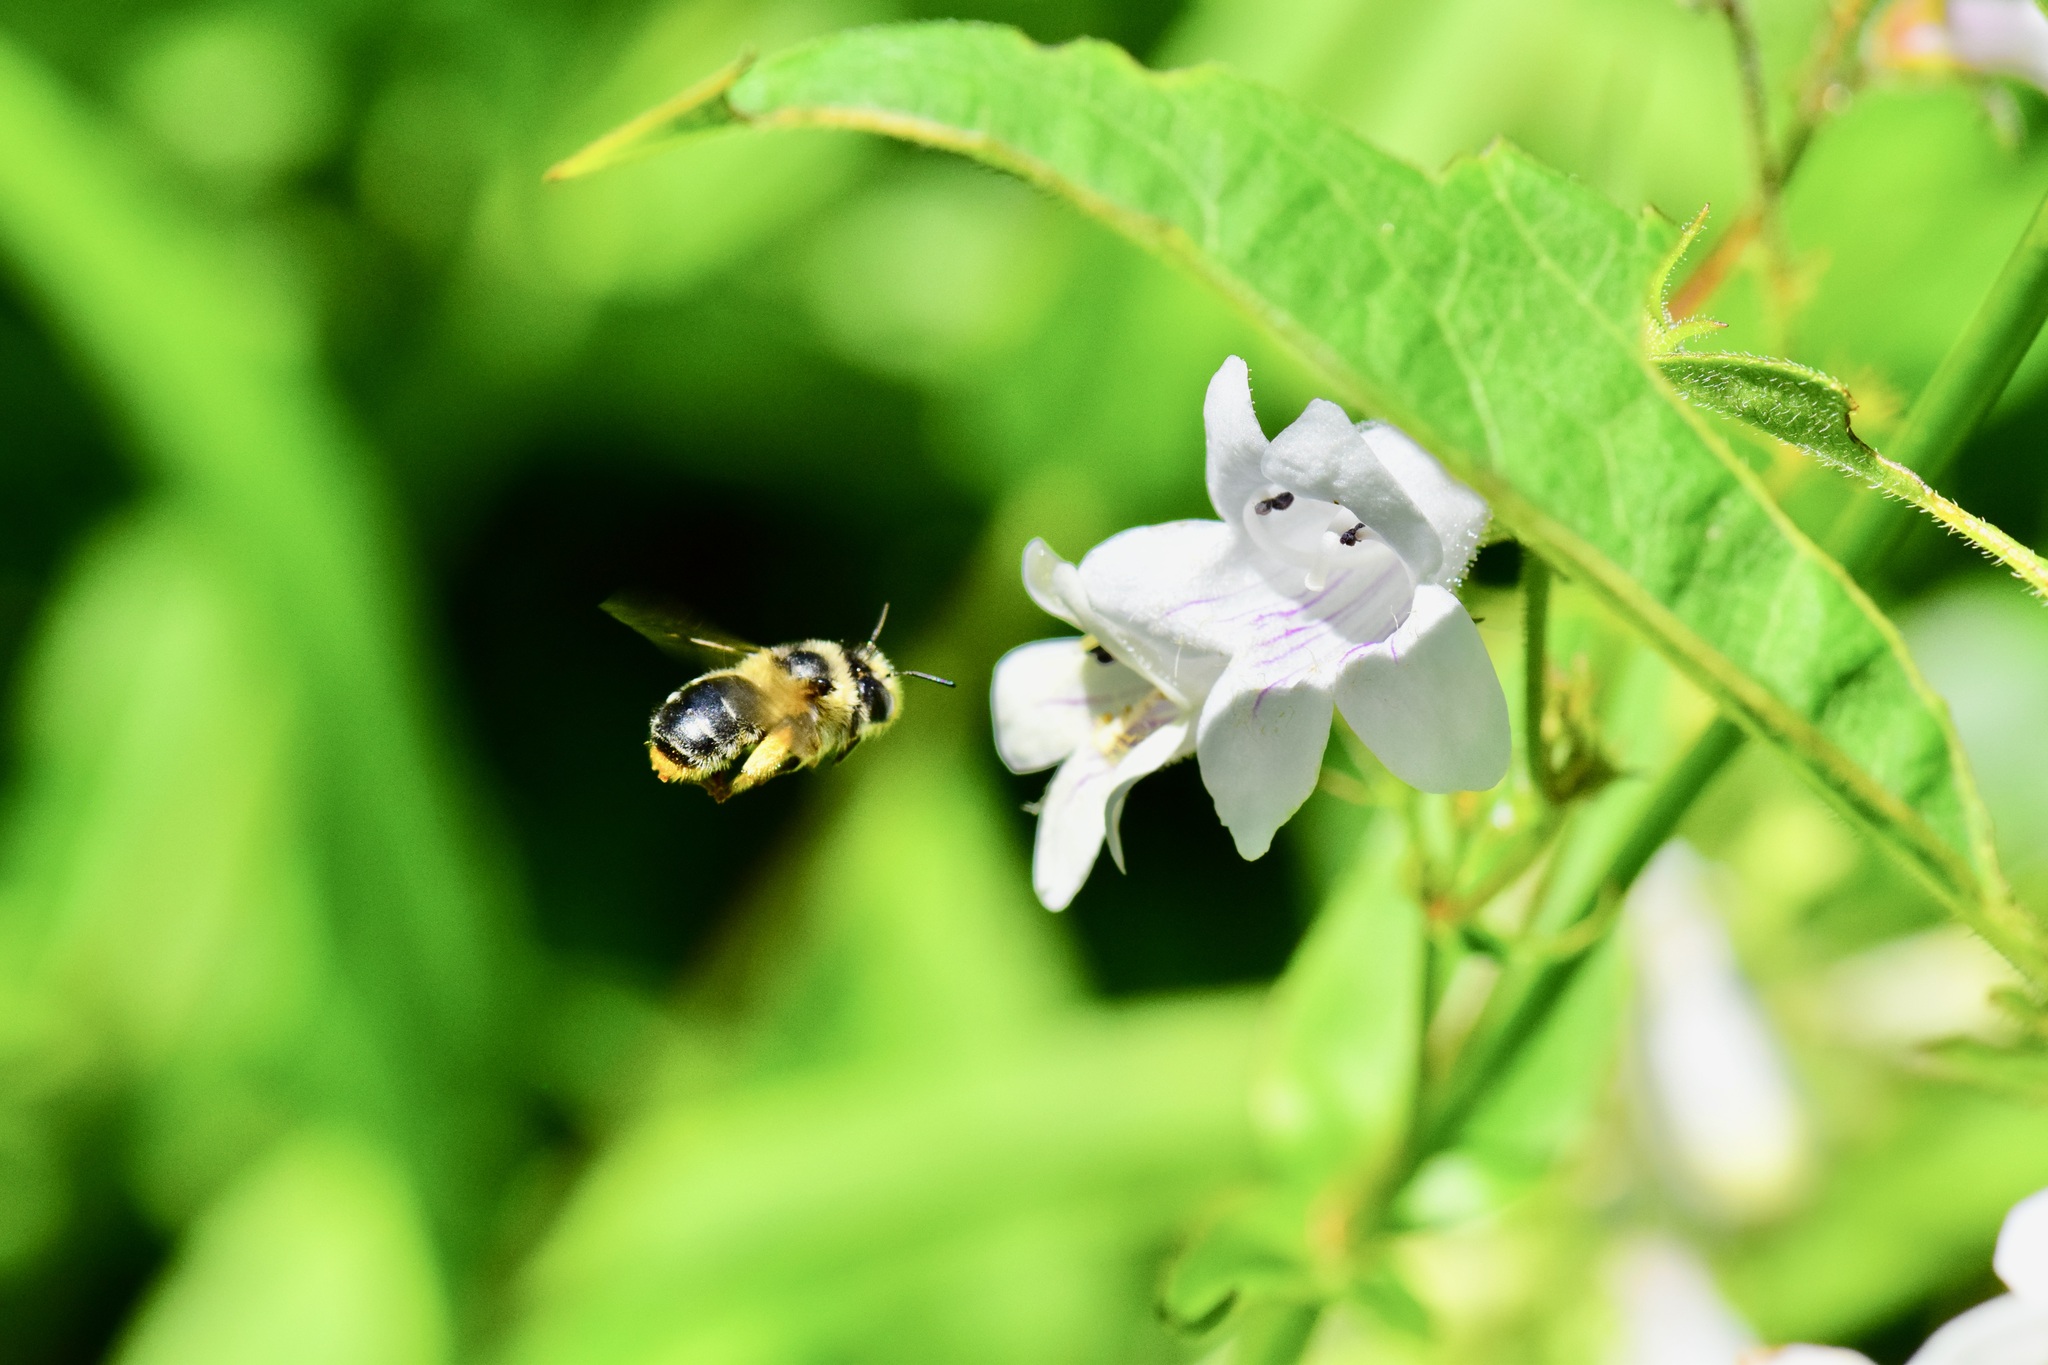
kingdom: Animalia
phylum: Arthropoda
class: Insecta
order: Hymenoptera
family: Apidae
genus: Anthophora
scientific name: Anthophora terminalis
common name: Orange-tipped wood-digger bee
